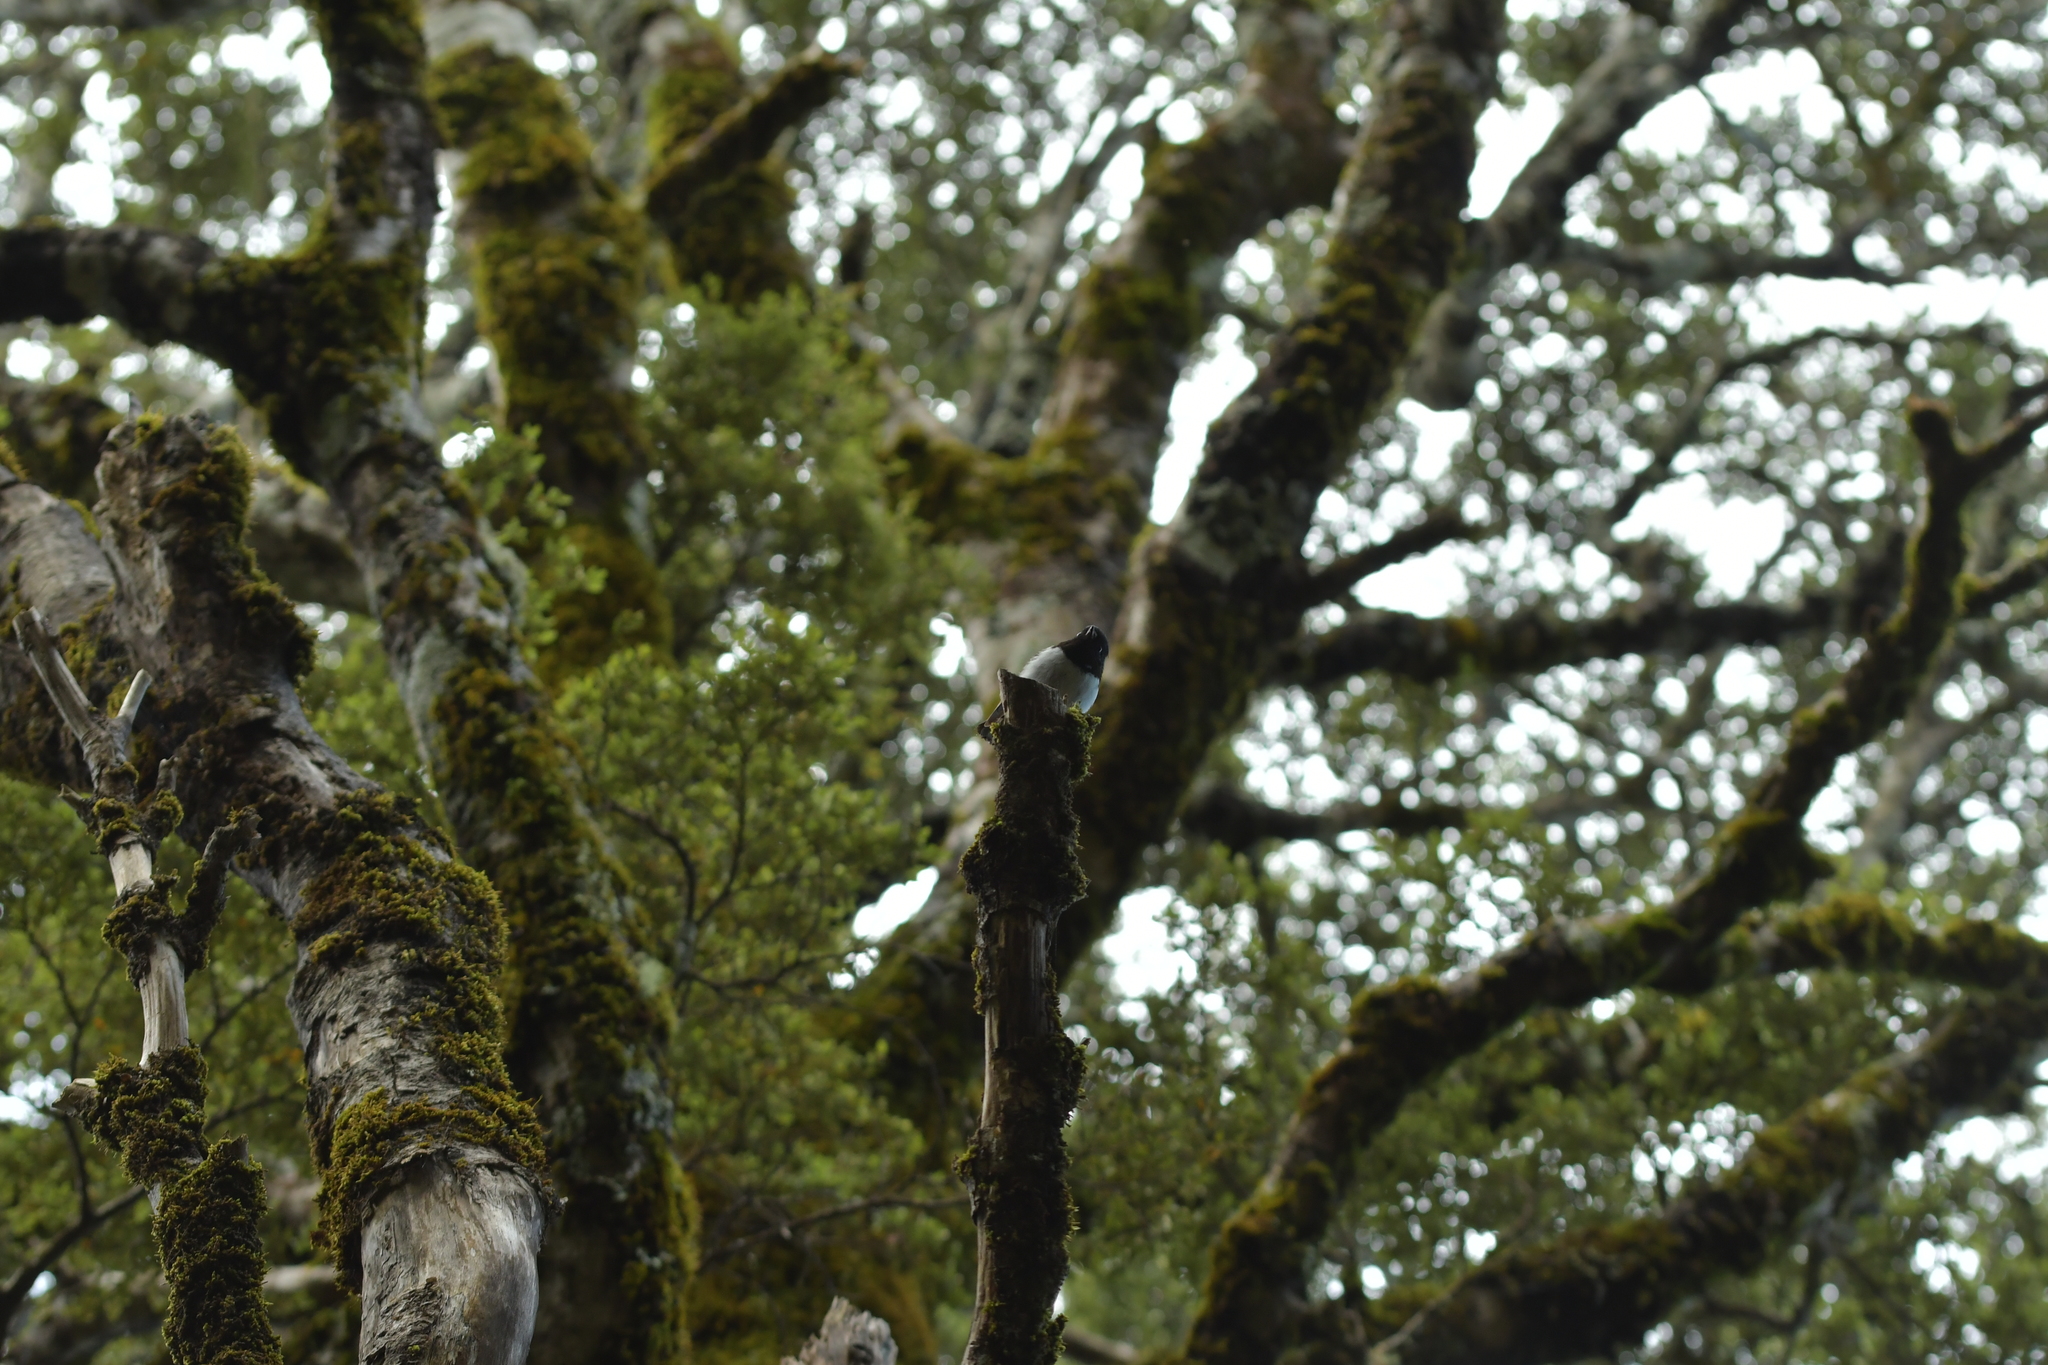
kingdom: Animalia
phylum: Chordata
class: Aves
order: Passeriformes
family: Petroicidae
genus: Petroica
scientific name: Petroica macrocephala
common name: Tomtit
